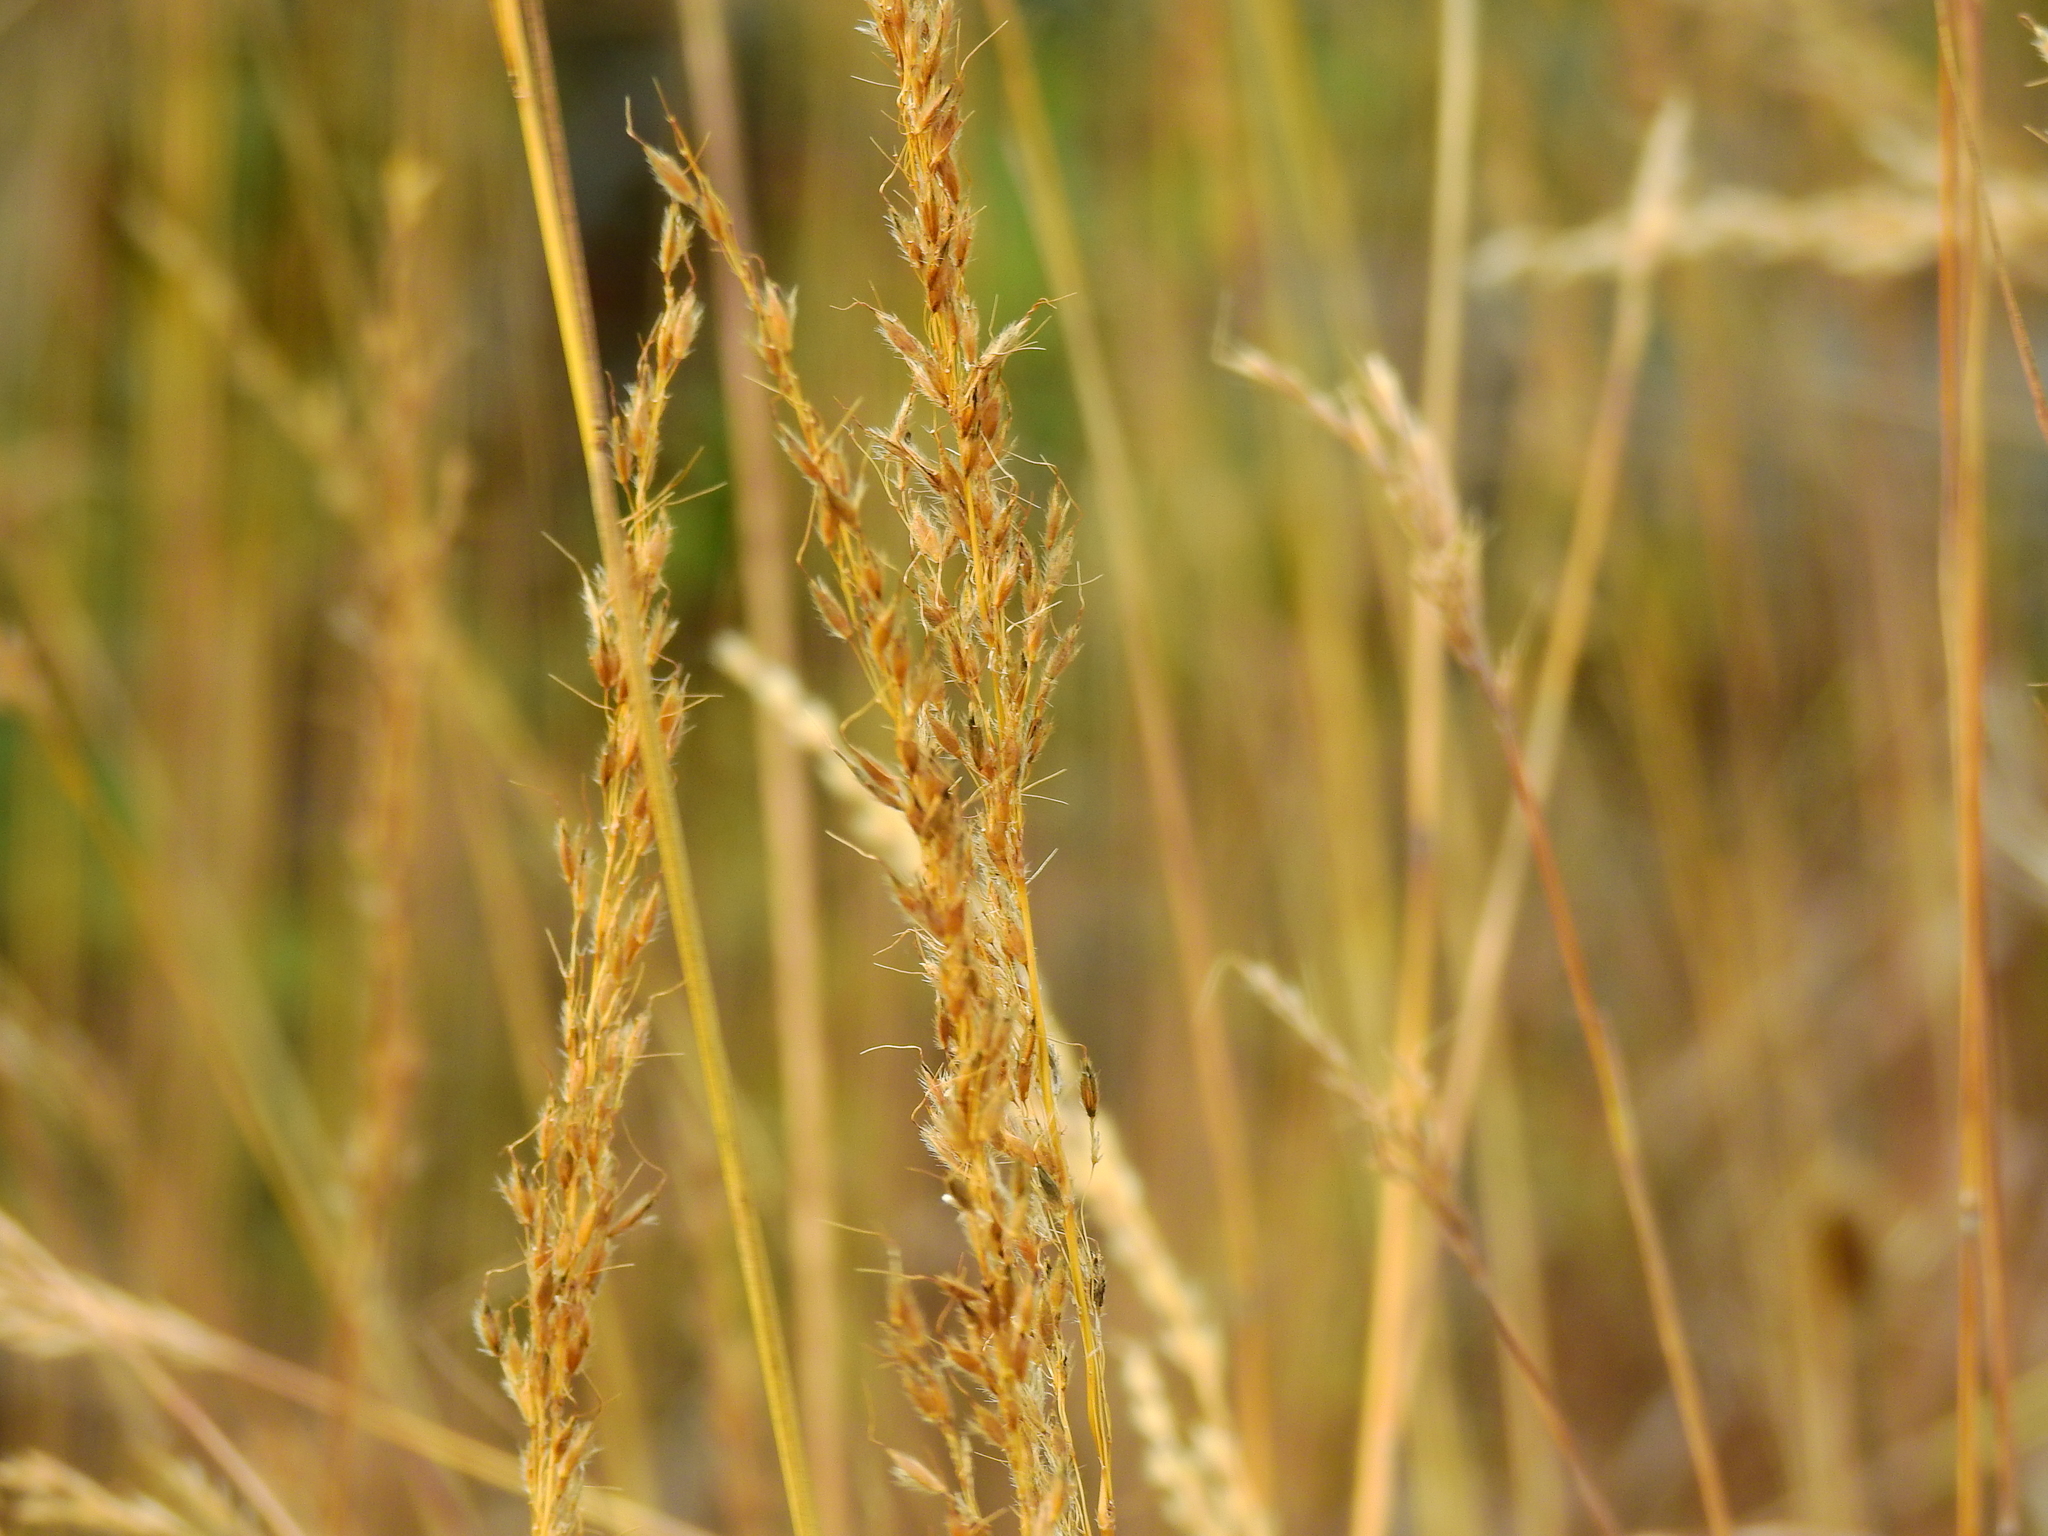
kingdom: Plantae
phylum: Tracheophyta
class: Liliopsida
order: Poales
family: Poaceae
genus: Sorghastrum
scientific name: Sorghastrum nutans
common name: Indian grass
